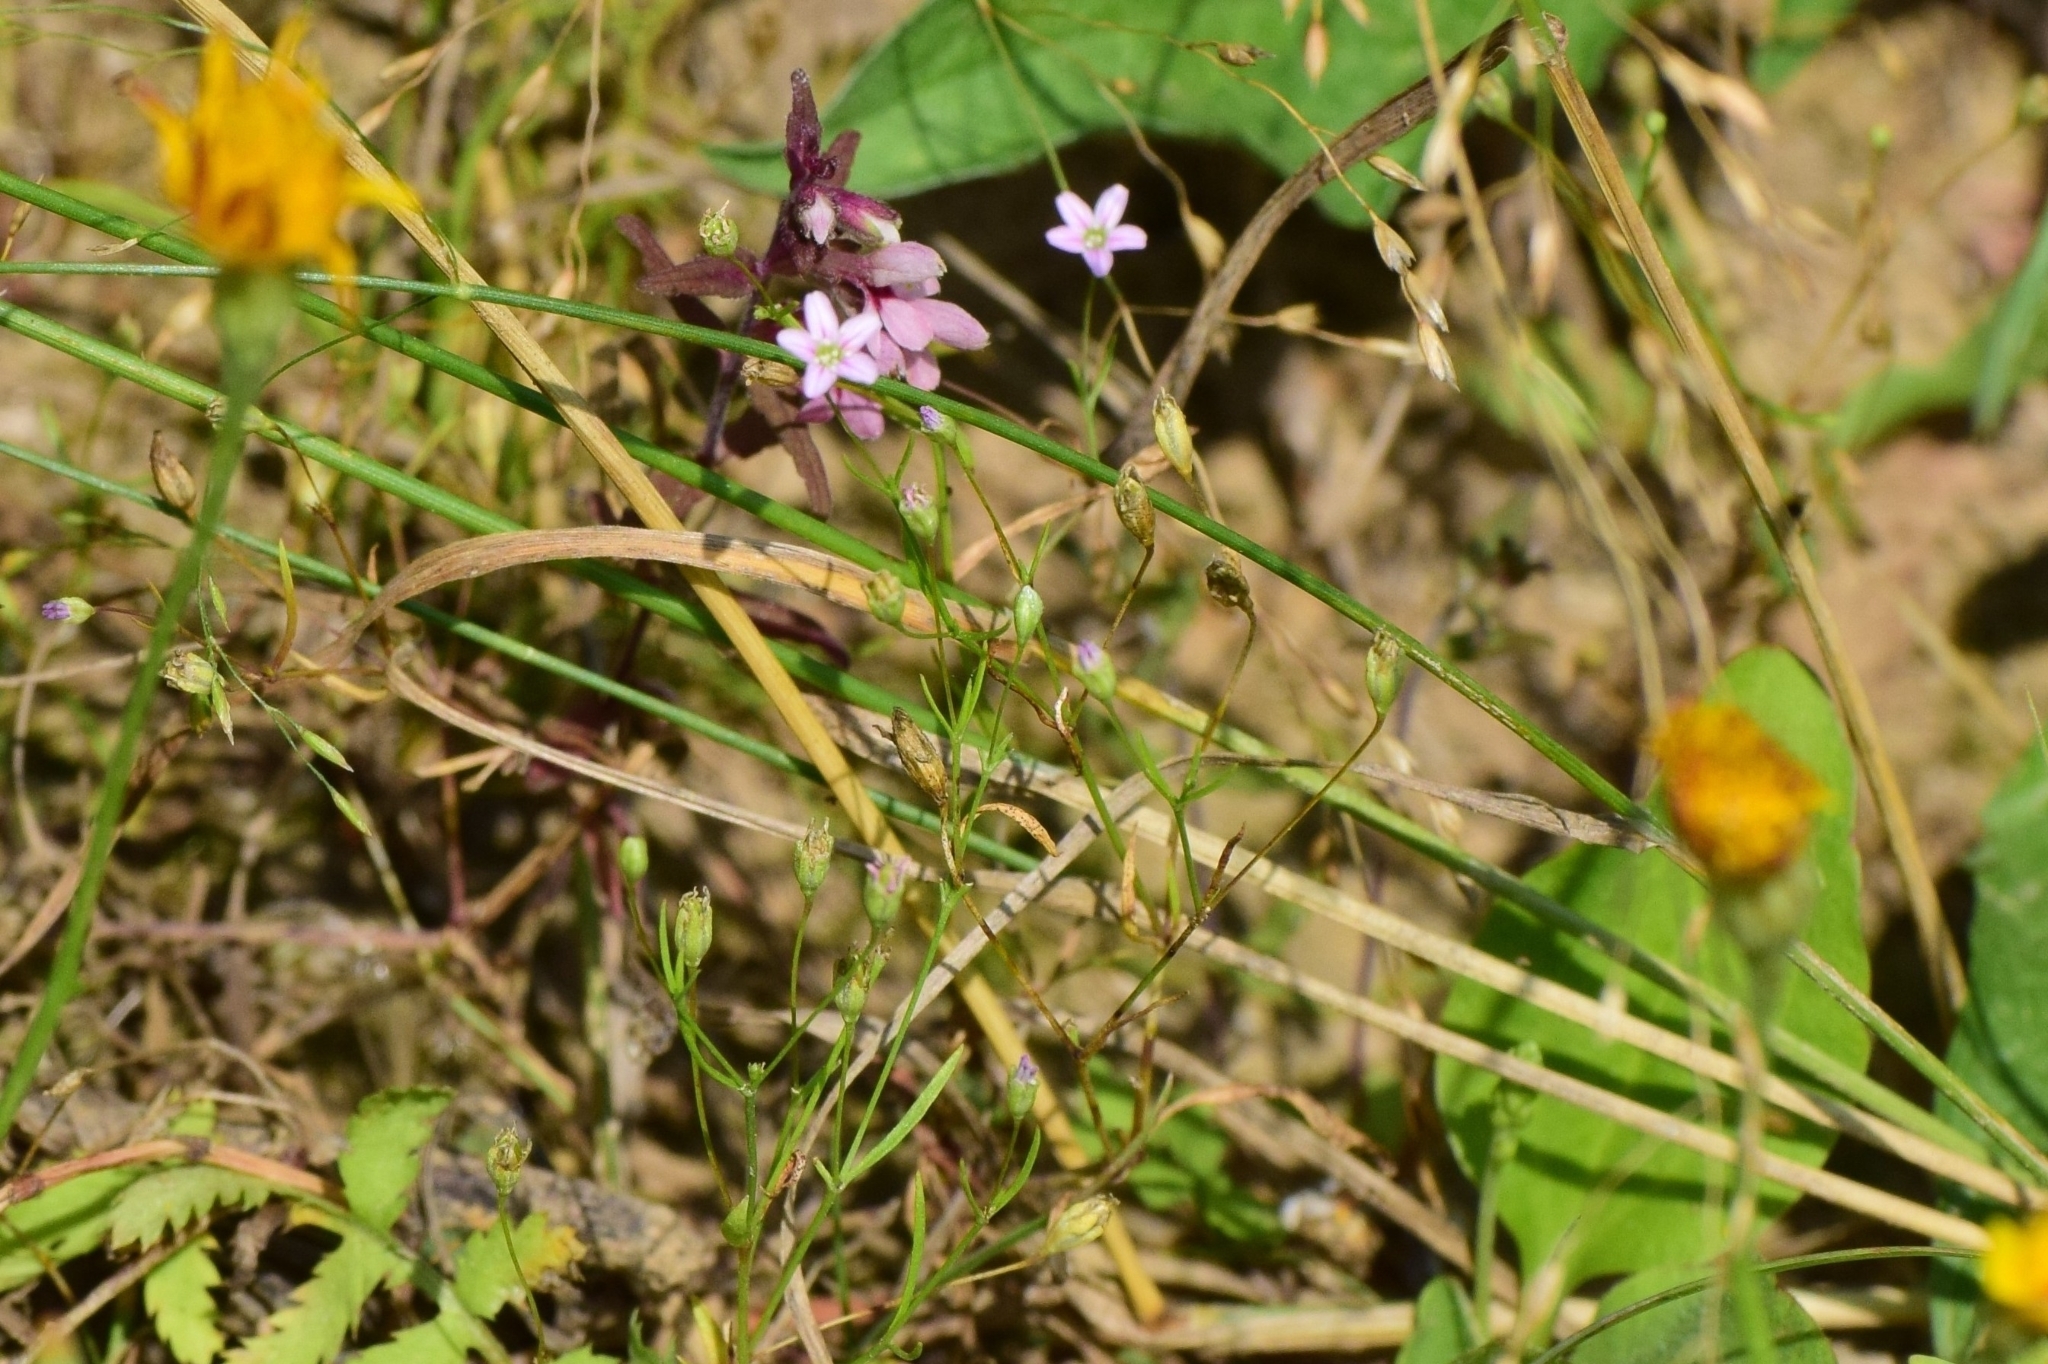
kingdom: Plantae
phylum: Tracheophyta
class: Magnoliopsida
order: Caryophyllales
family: Caryophyllaceae
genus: Psammophiliella
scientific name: Psammophiliella muralis
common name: Cushion baby's-breath
